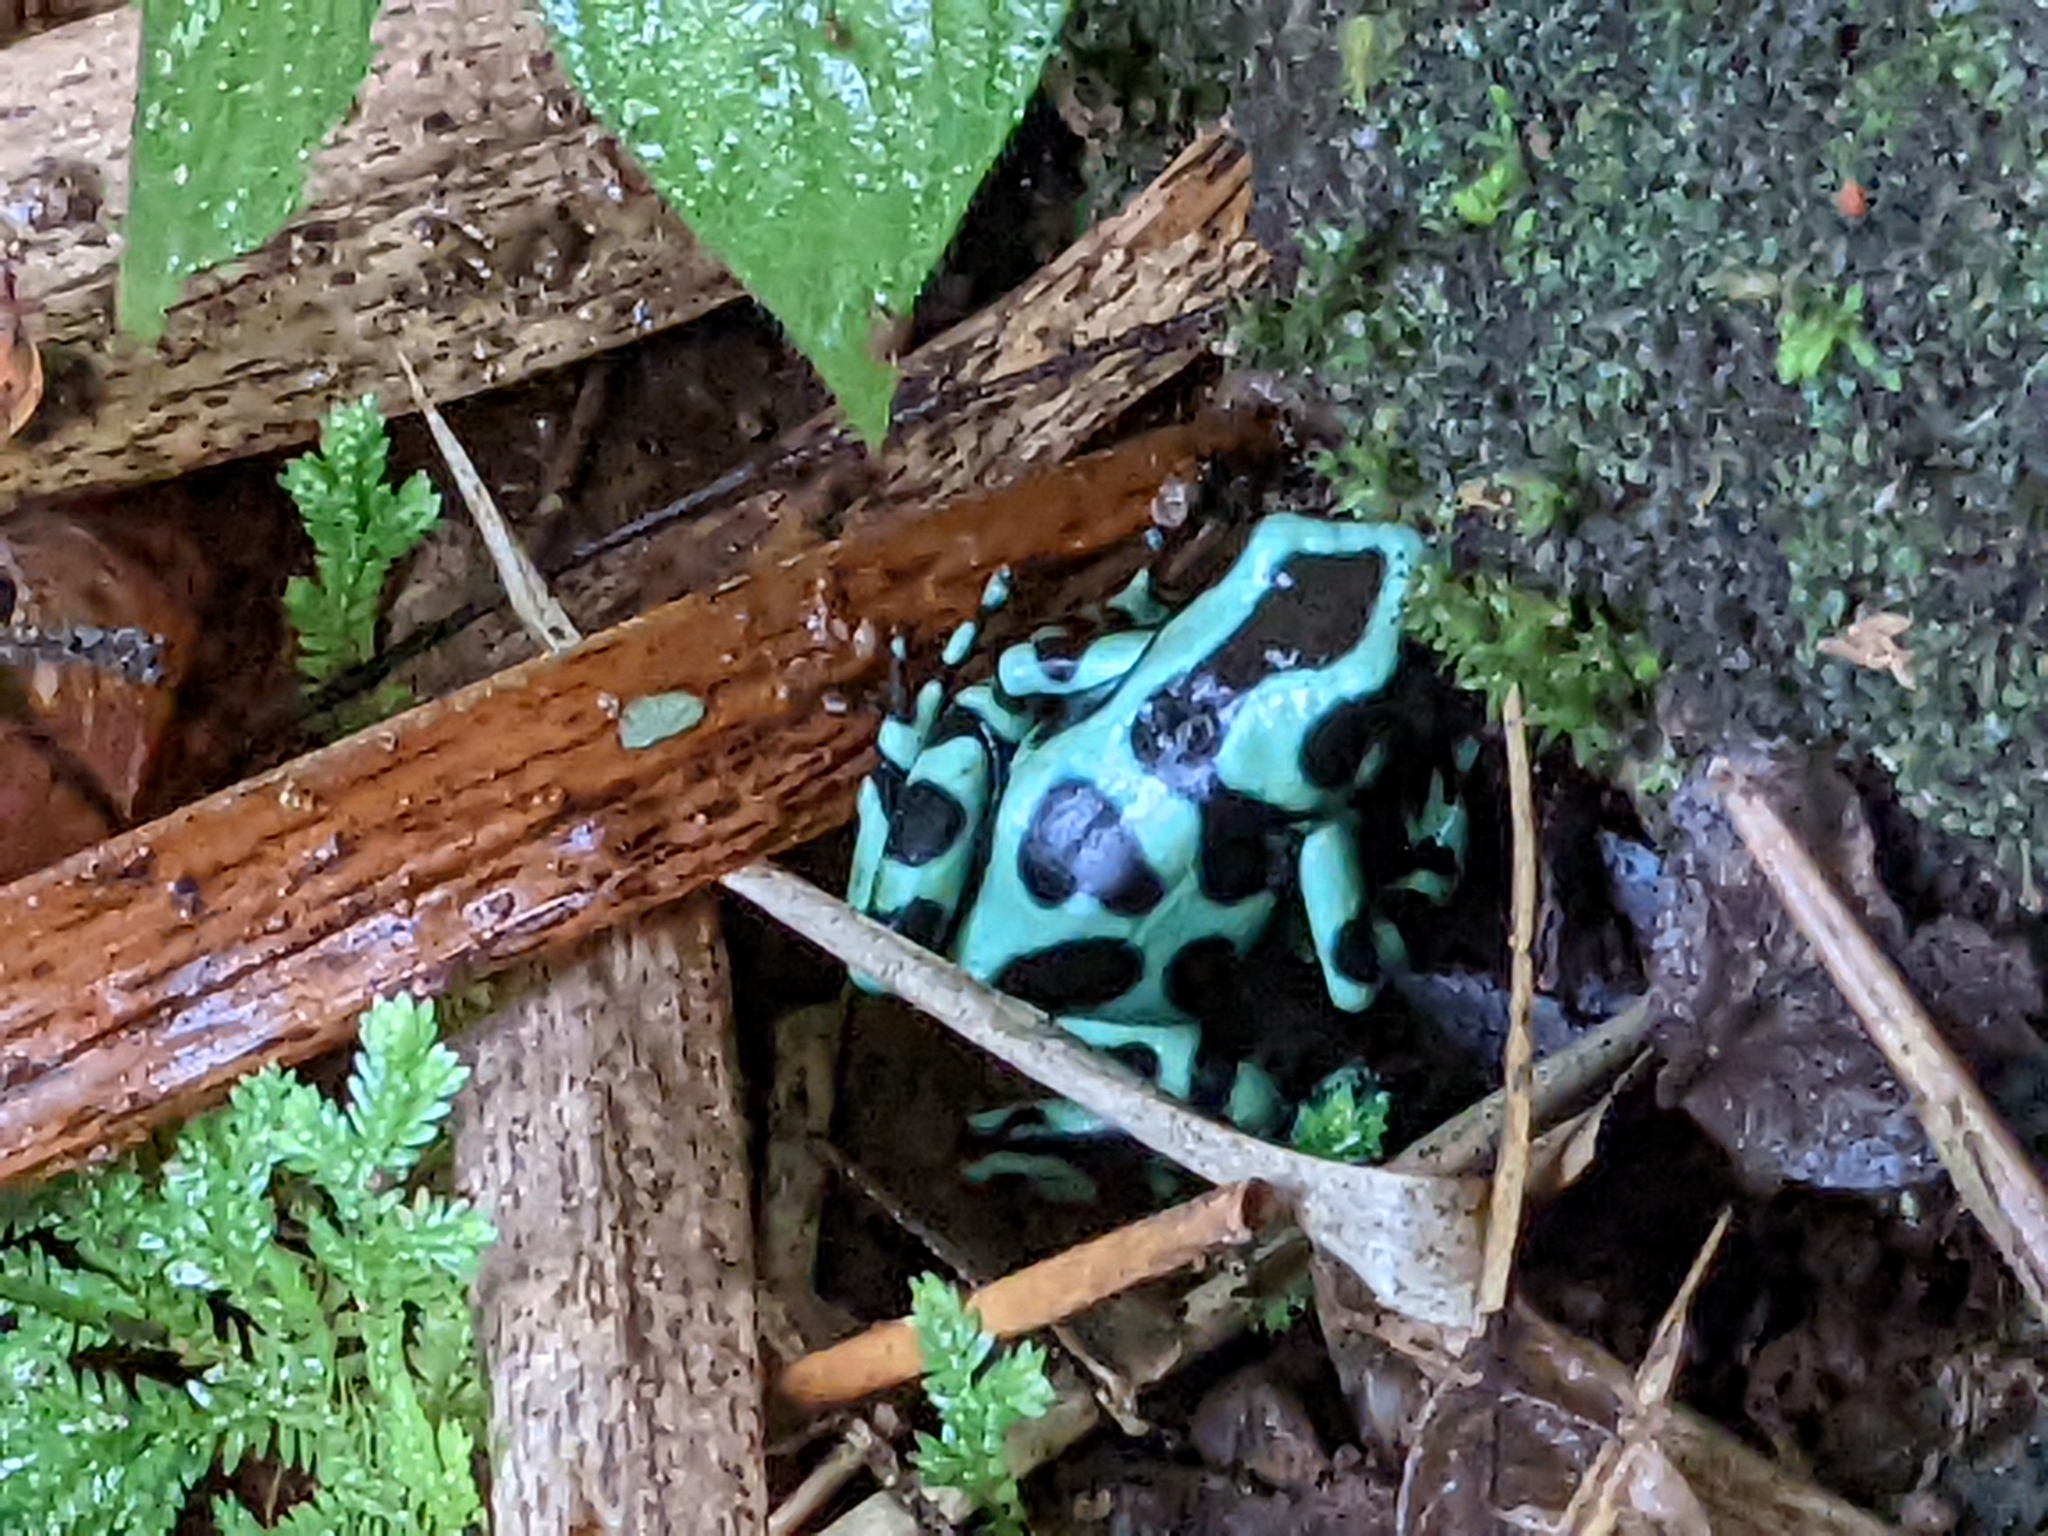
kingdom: Animalia
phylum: Chordata
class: Amphibia
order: Anura
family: Dendrobatidae
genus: Dendrobates
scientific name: Dendrobates auratus
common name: Green and black poison dart frog
